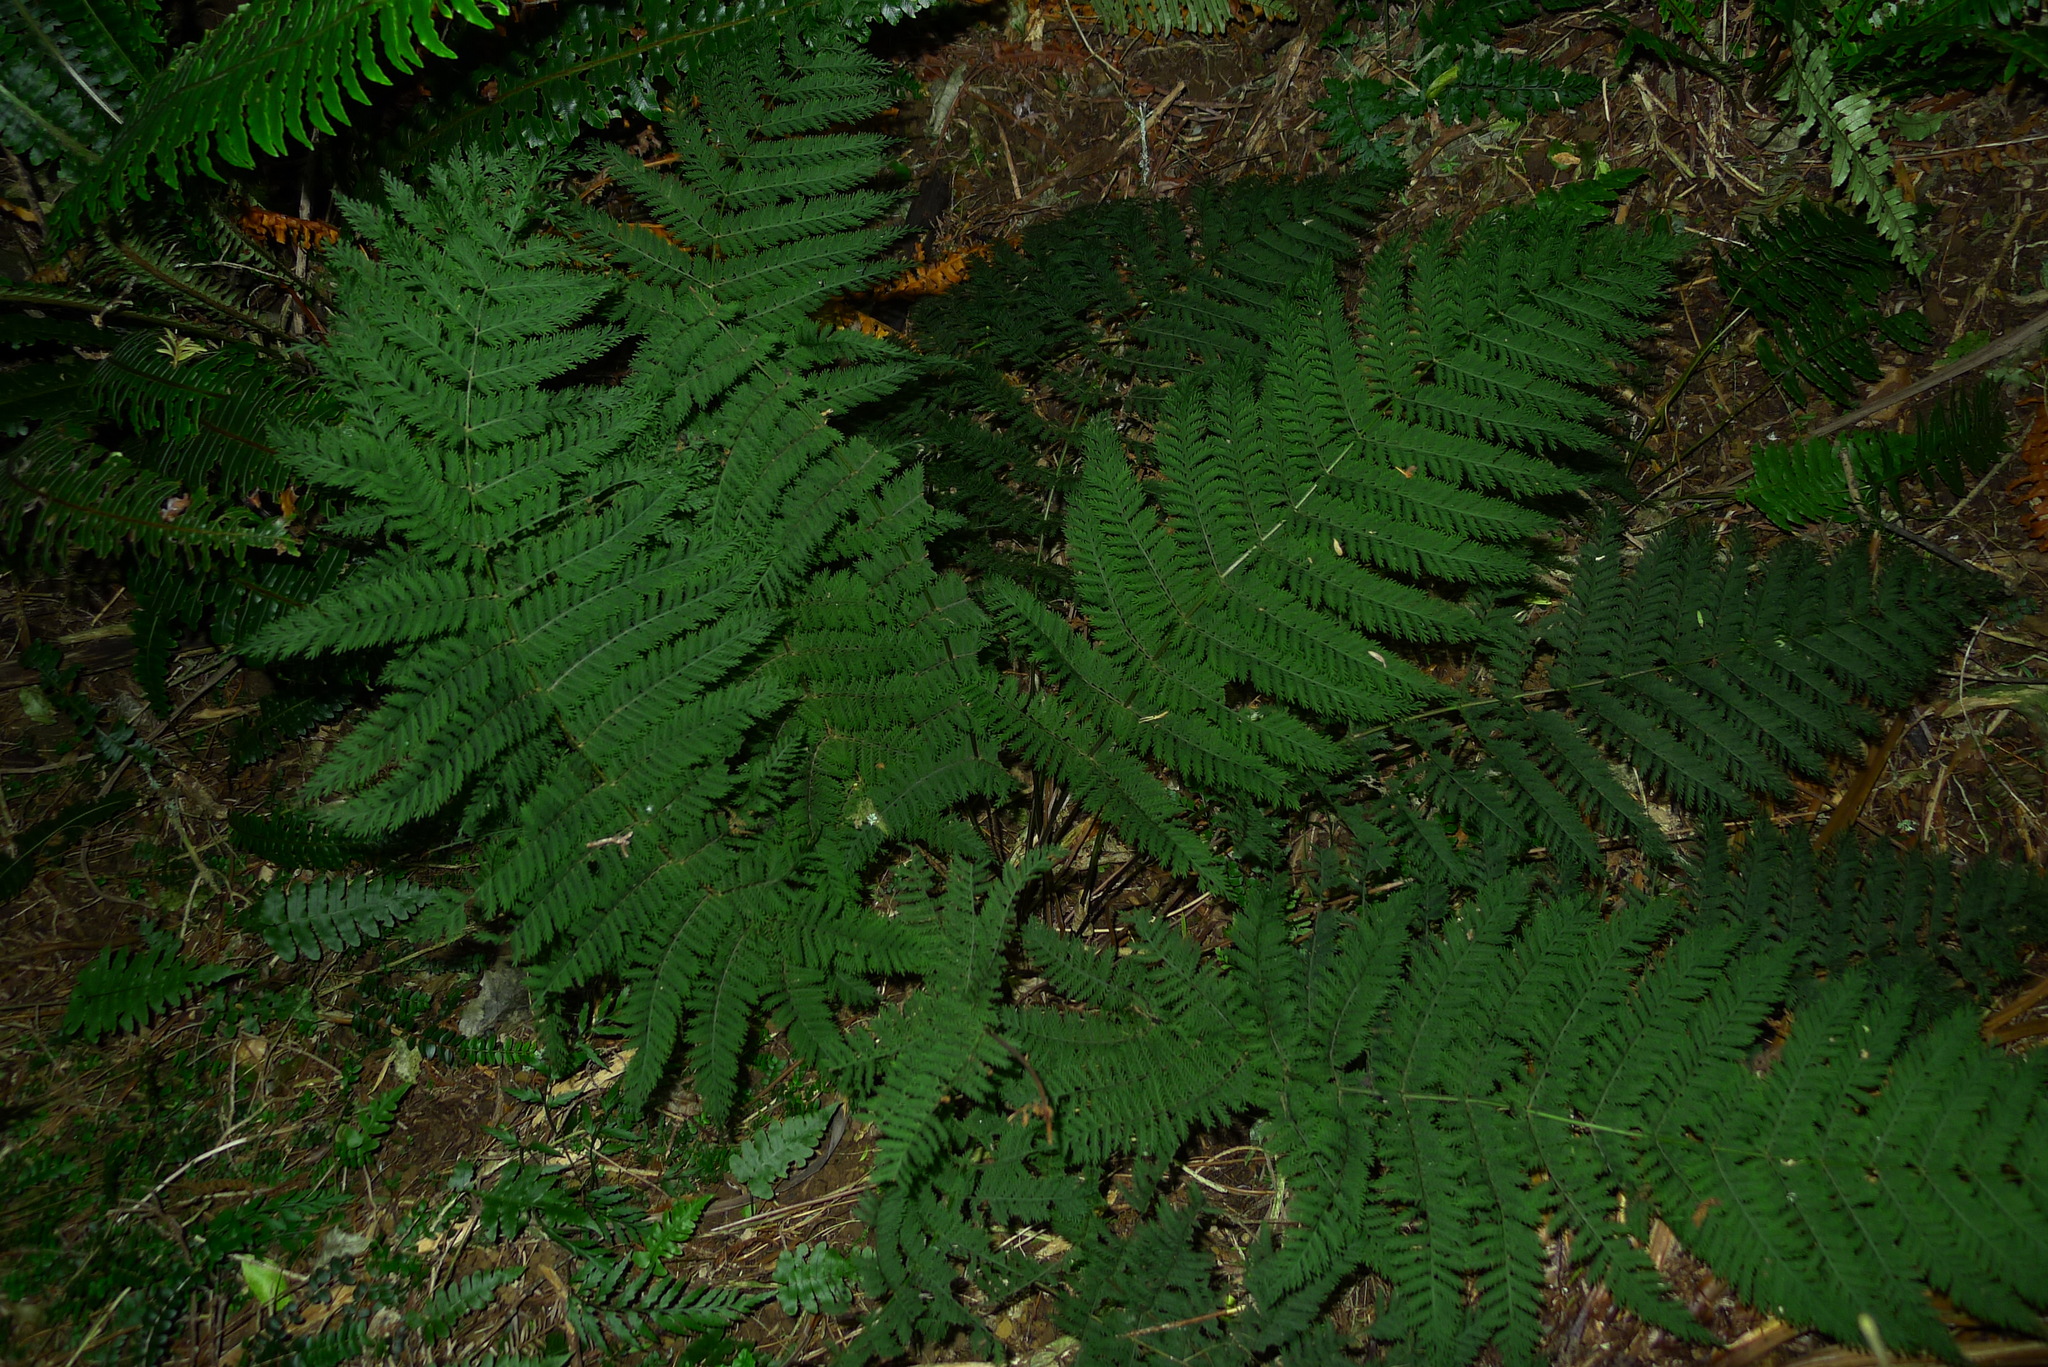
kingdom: Plantae
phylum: Tracheophyta
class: Polypodiopsida
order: Osmundales
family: Osmundaceae
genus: Leptopteris
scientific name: Leptopteris hymenophylloides
